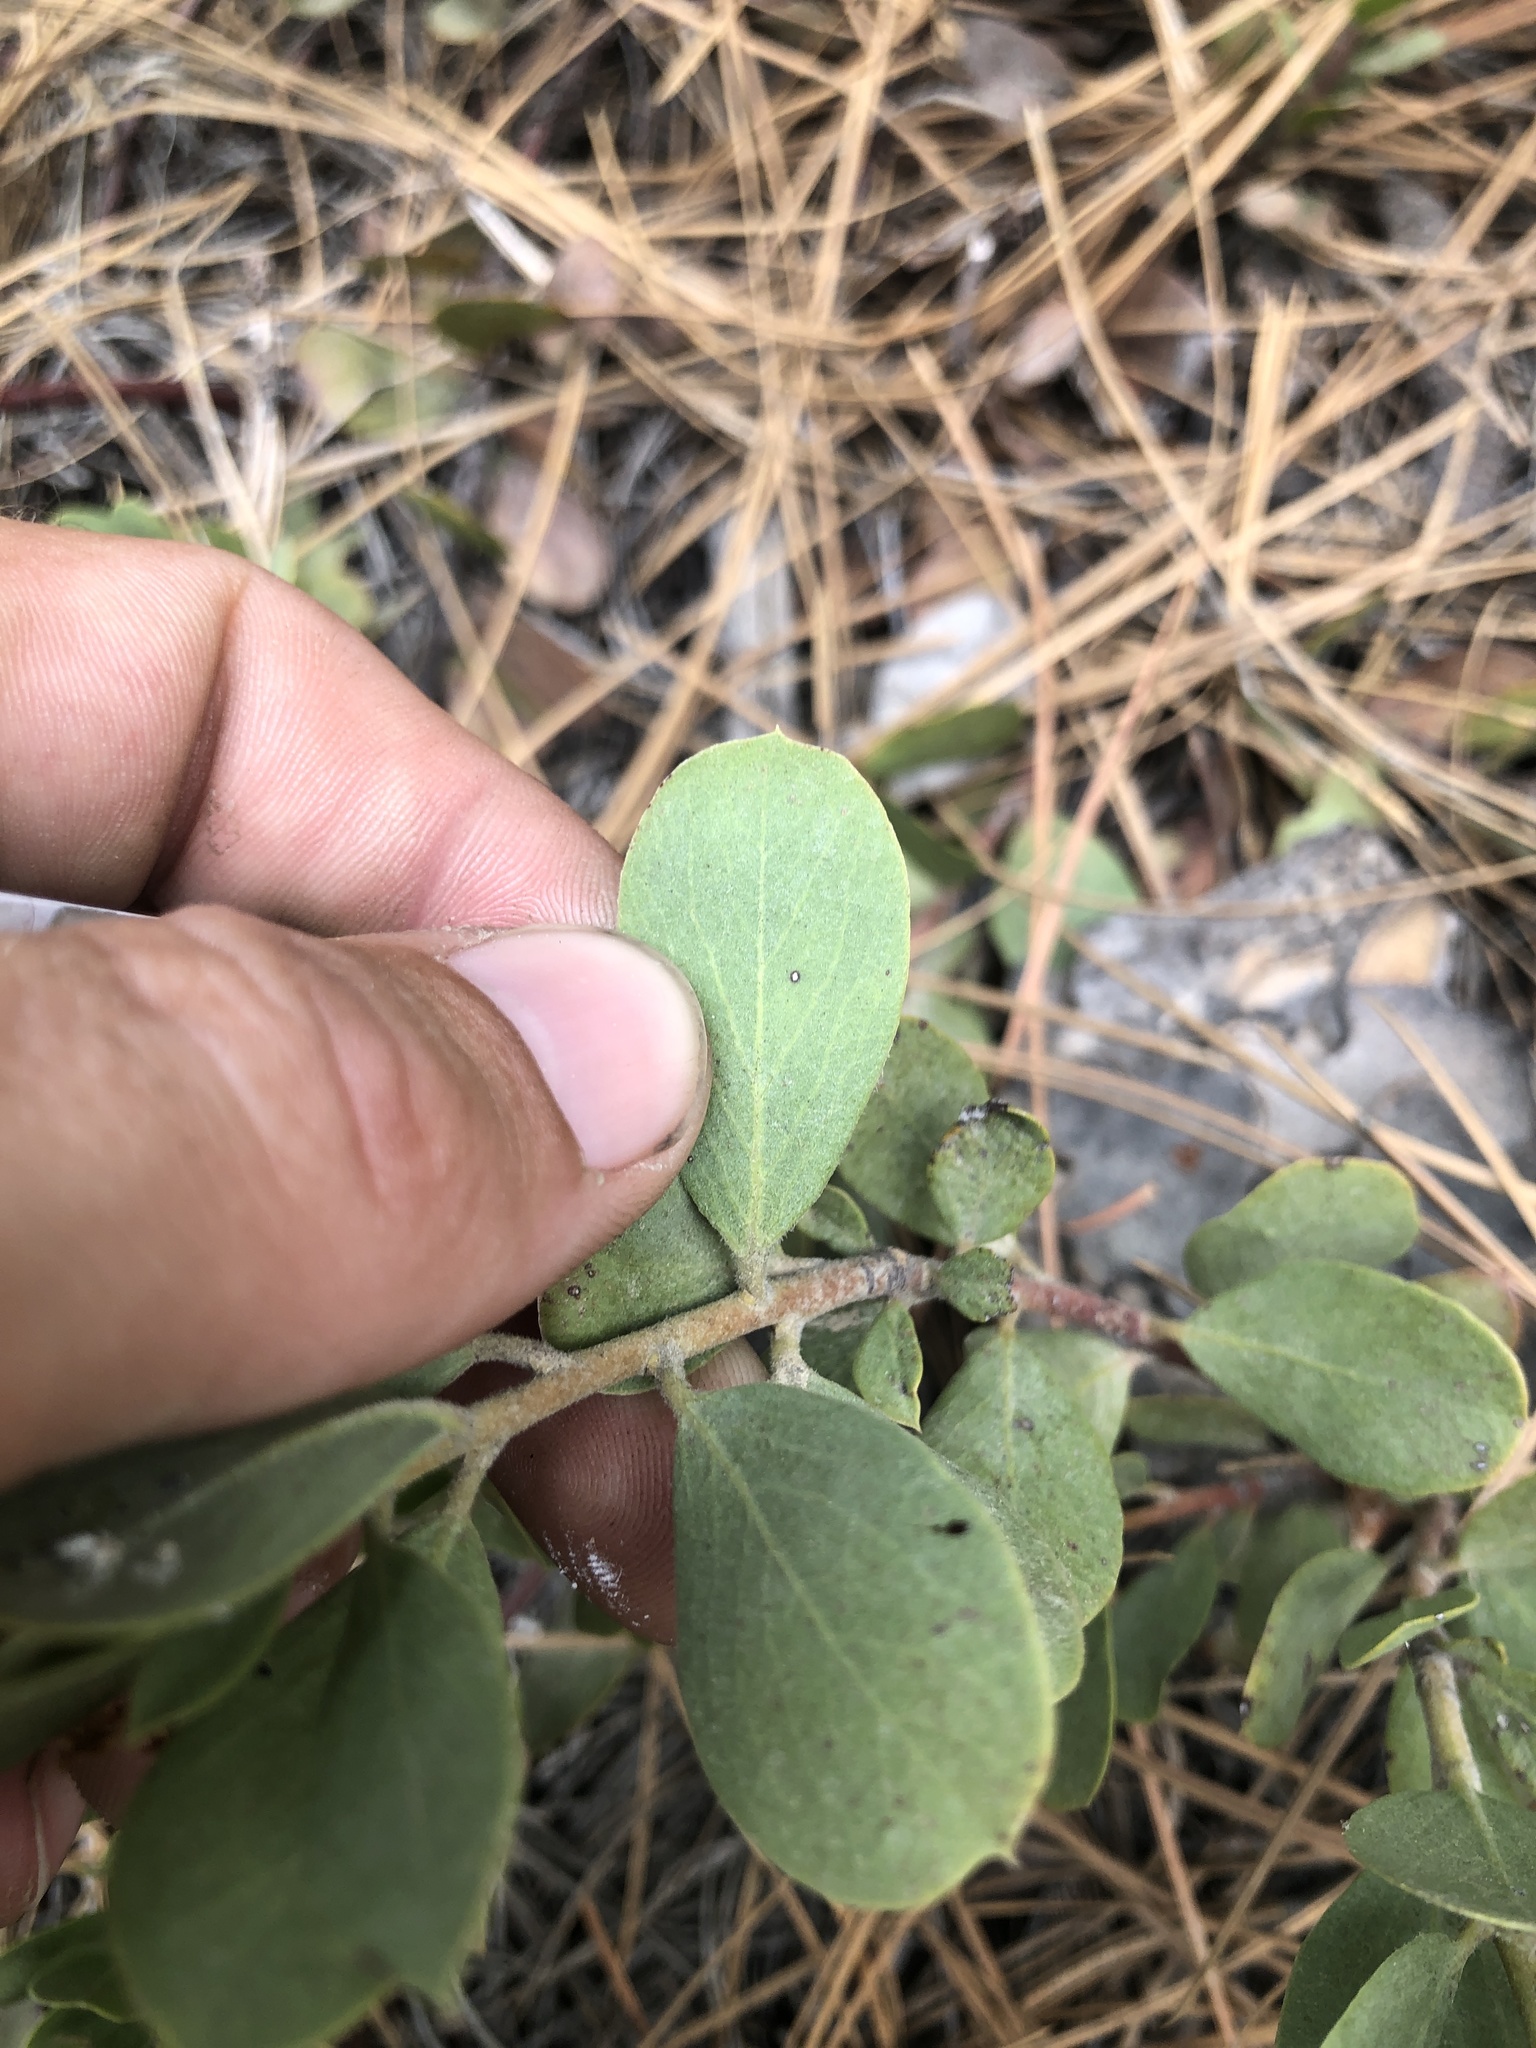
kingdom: Plantae
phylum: Tracheophyta
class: Magnoliopsida
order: Ericales
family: Ericaceae
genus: Arctostaphylos
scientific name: Arctostaphylos nevadensis
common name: Pinemat manzanita
